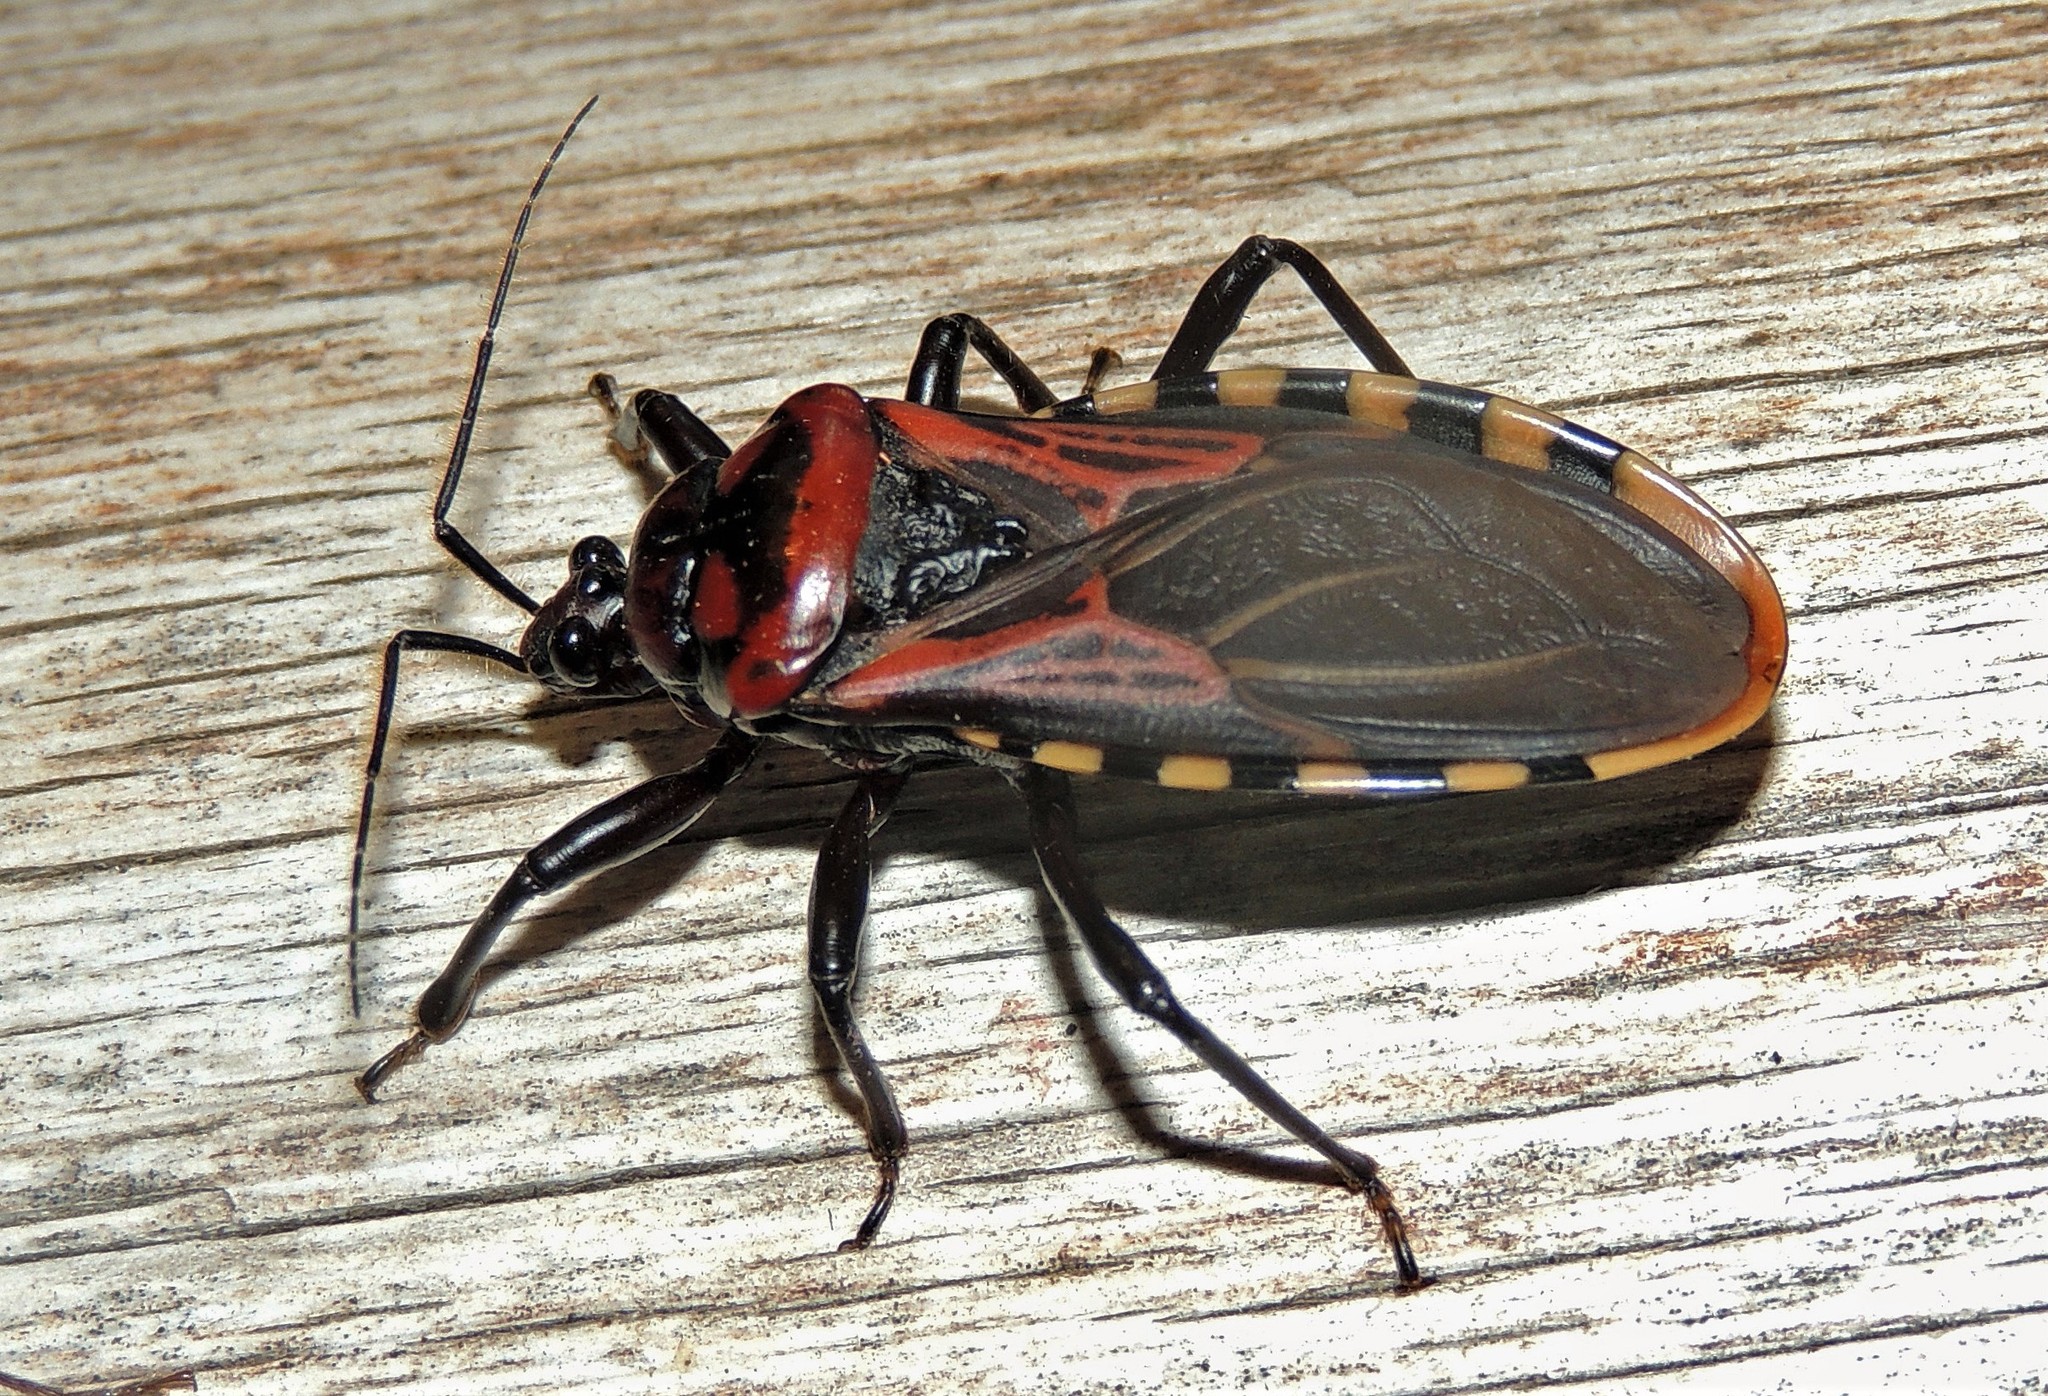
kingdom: Animalia
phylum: Arthropoda
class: Insecta
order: Hemiptera
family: Reduviidae
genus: Brontostoma
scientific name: Brontostoma colossus
